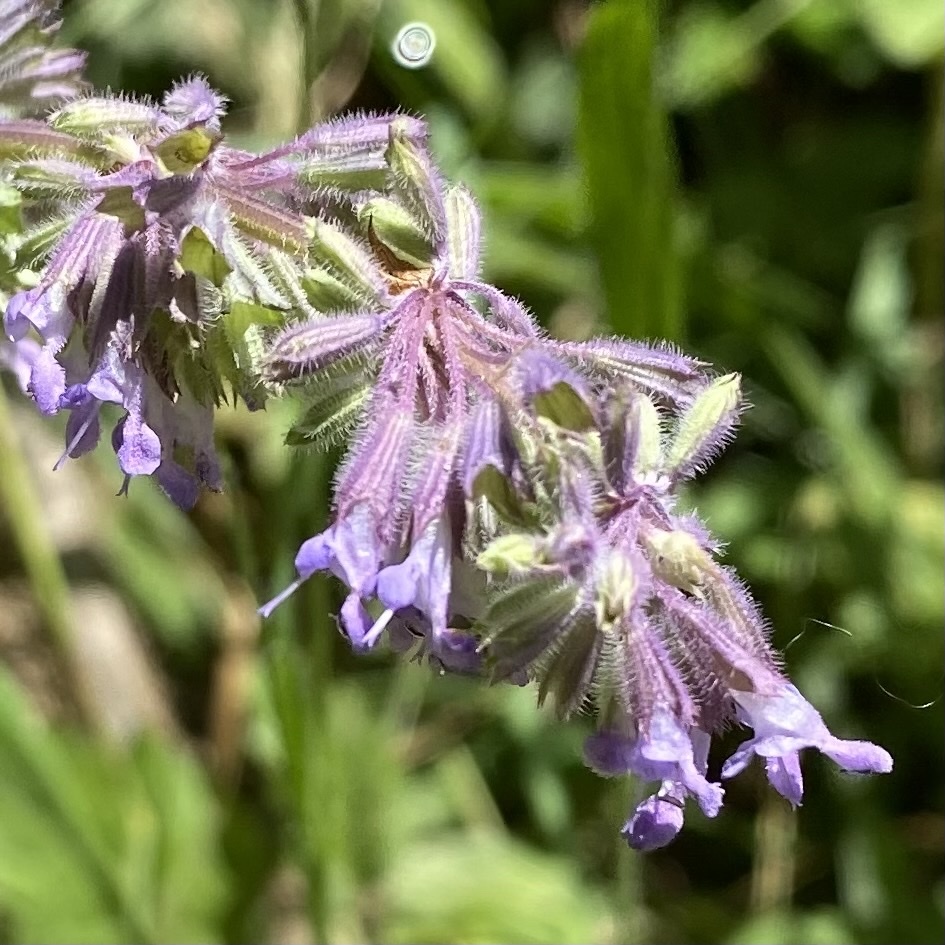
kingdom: Plantae
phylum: Tracheophyta
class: Magnoliopsida
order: Lamiales
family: Lamiaceae
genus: Salvia
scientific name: Salvia verticillata
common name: Whorled clary
